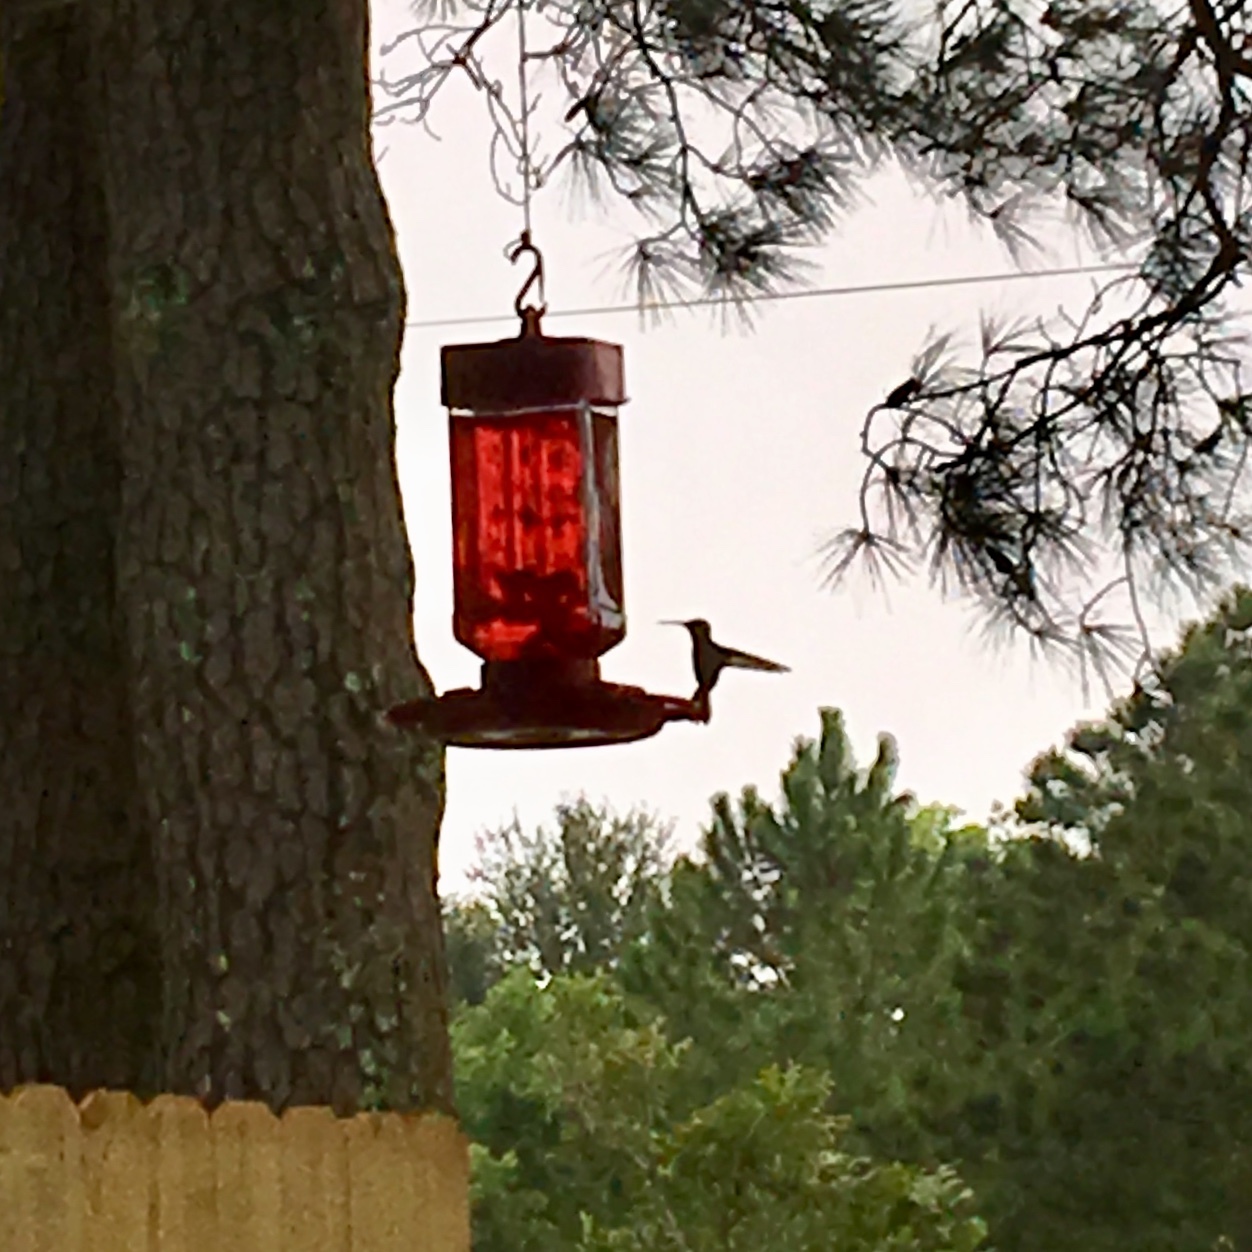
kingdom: Animalia
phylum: Chordata
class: Aves
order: Apodiformes
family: Trochilidae
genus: Archilochus
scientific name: Archilochus colubris
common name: Ruby-throated hummingbird
